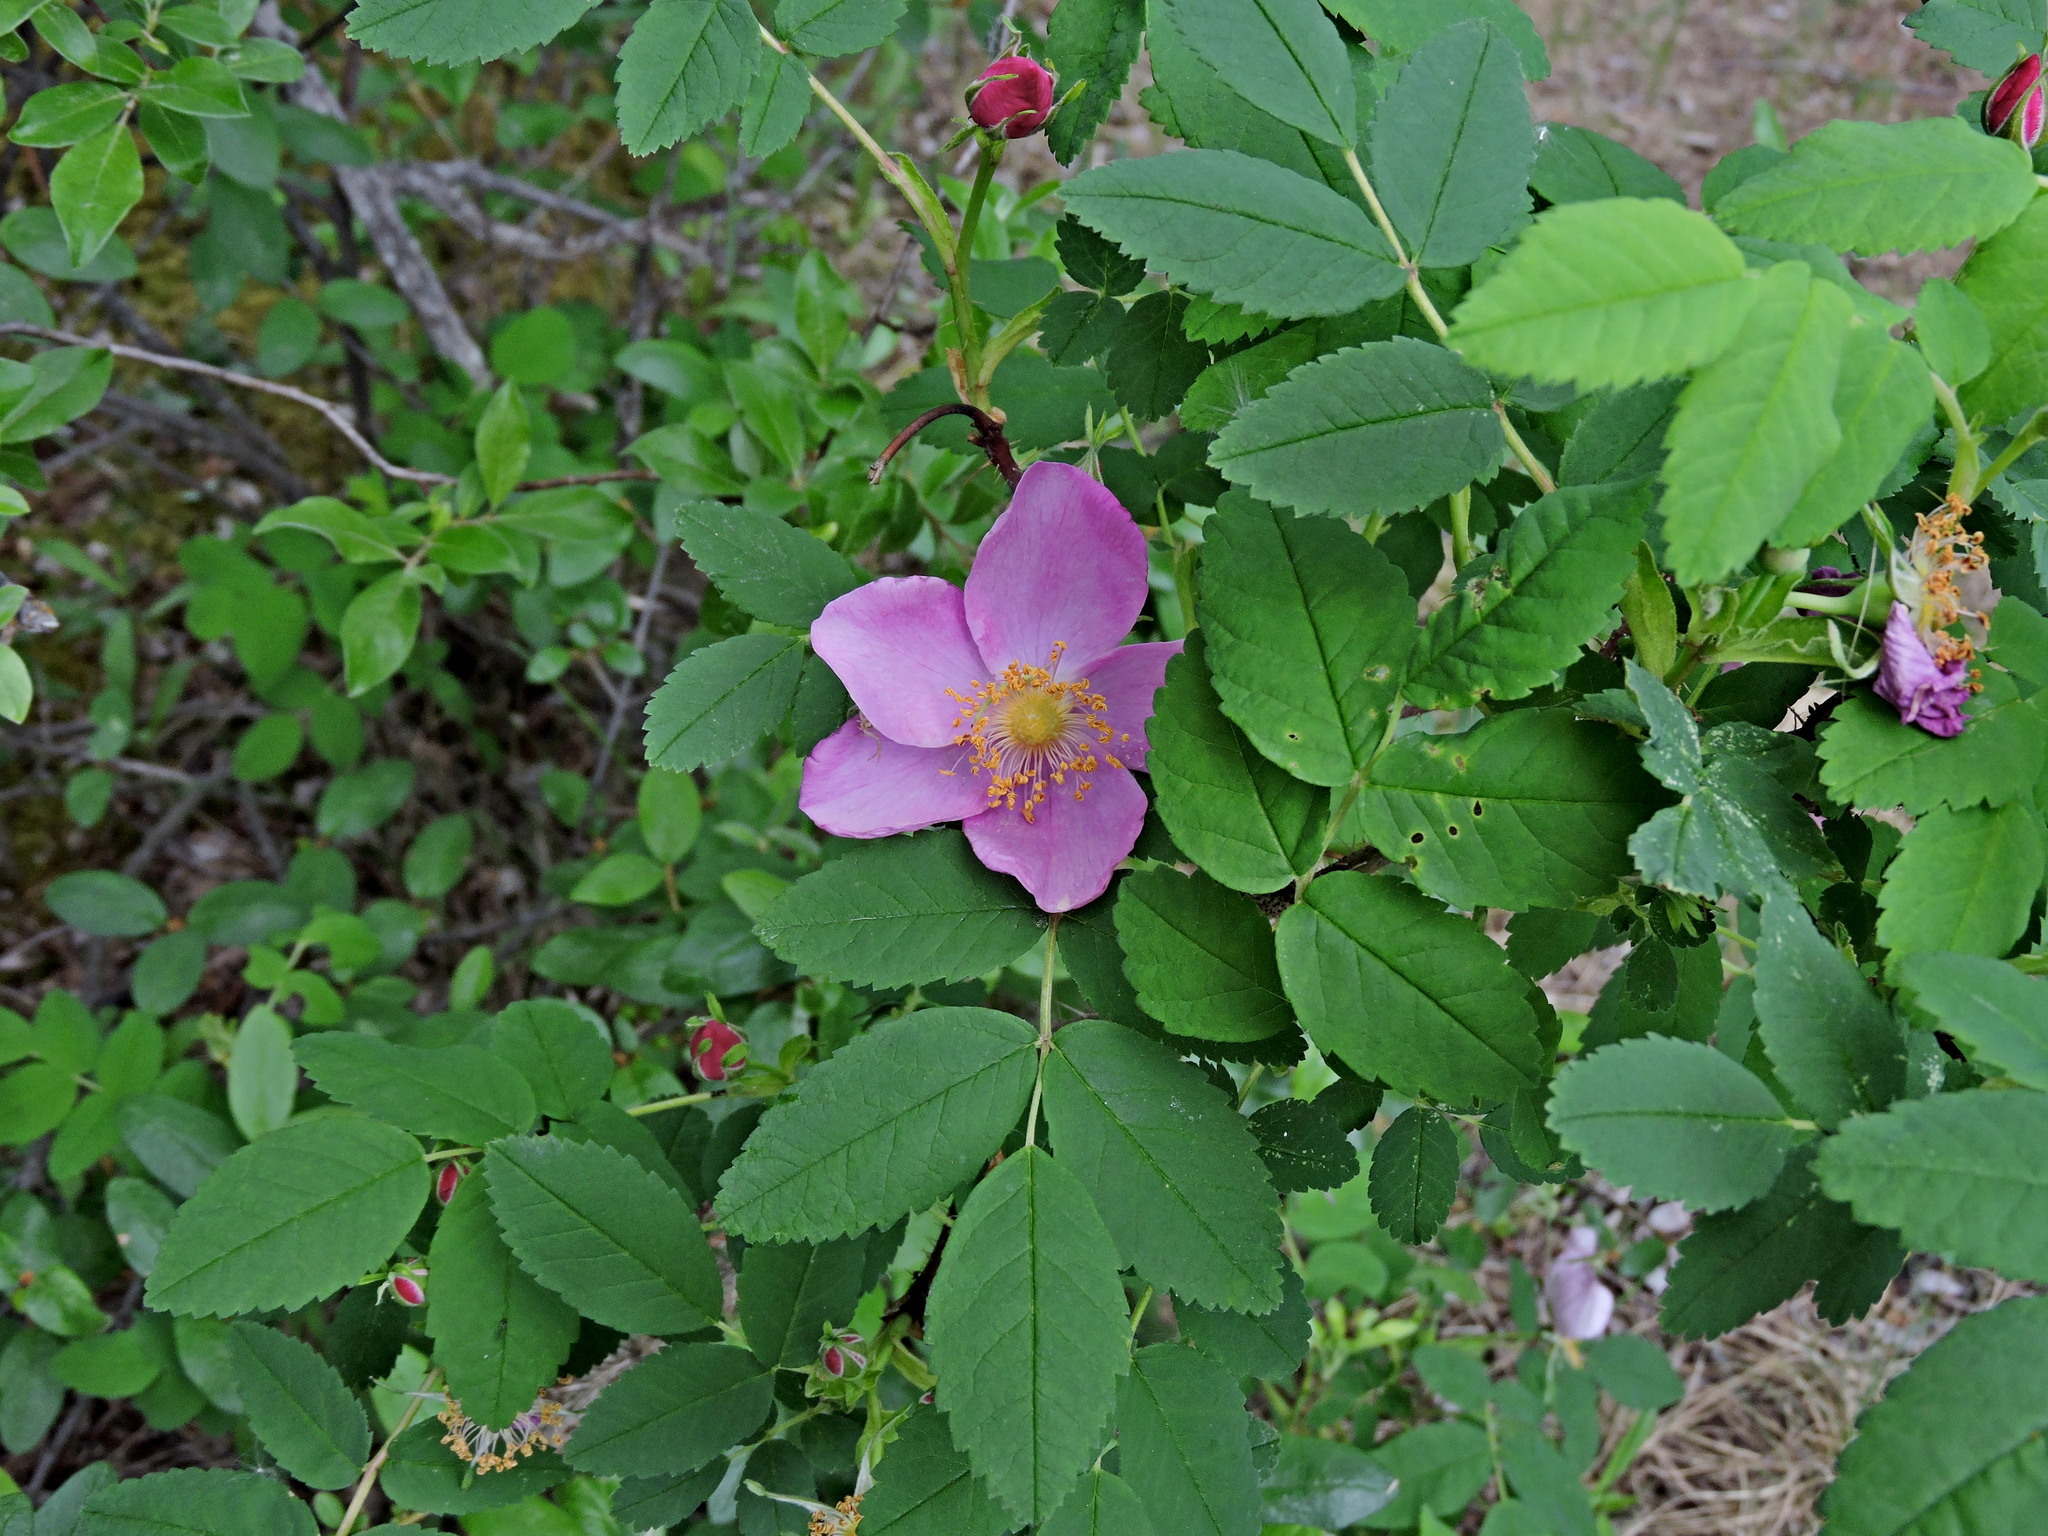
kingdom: Plantae
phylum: Tracheophyta
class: Magnoliopsida
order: Rosales
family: Rosaceae
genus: Rosa
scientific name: Rosa acicularis
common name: Prickly rose
